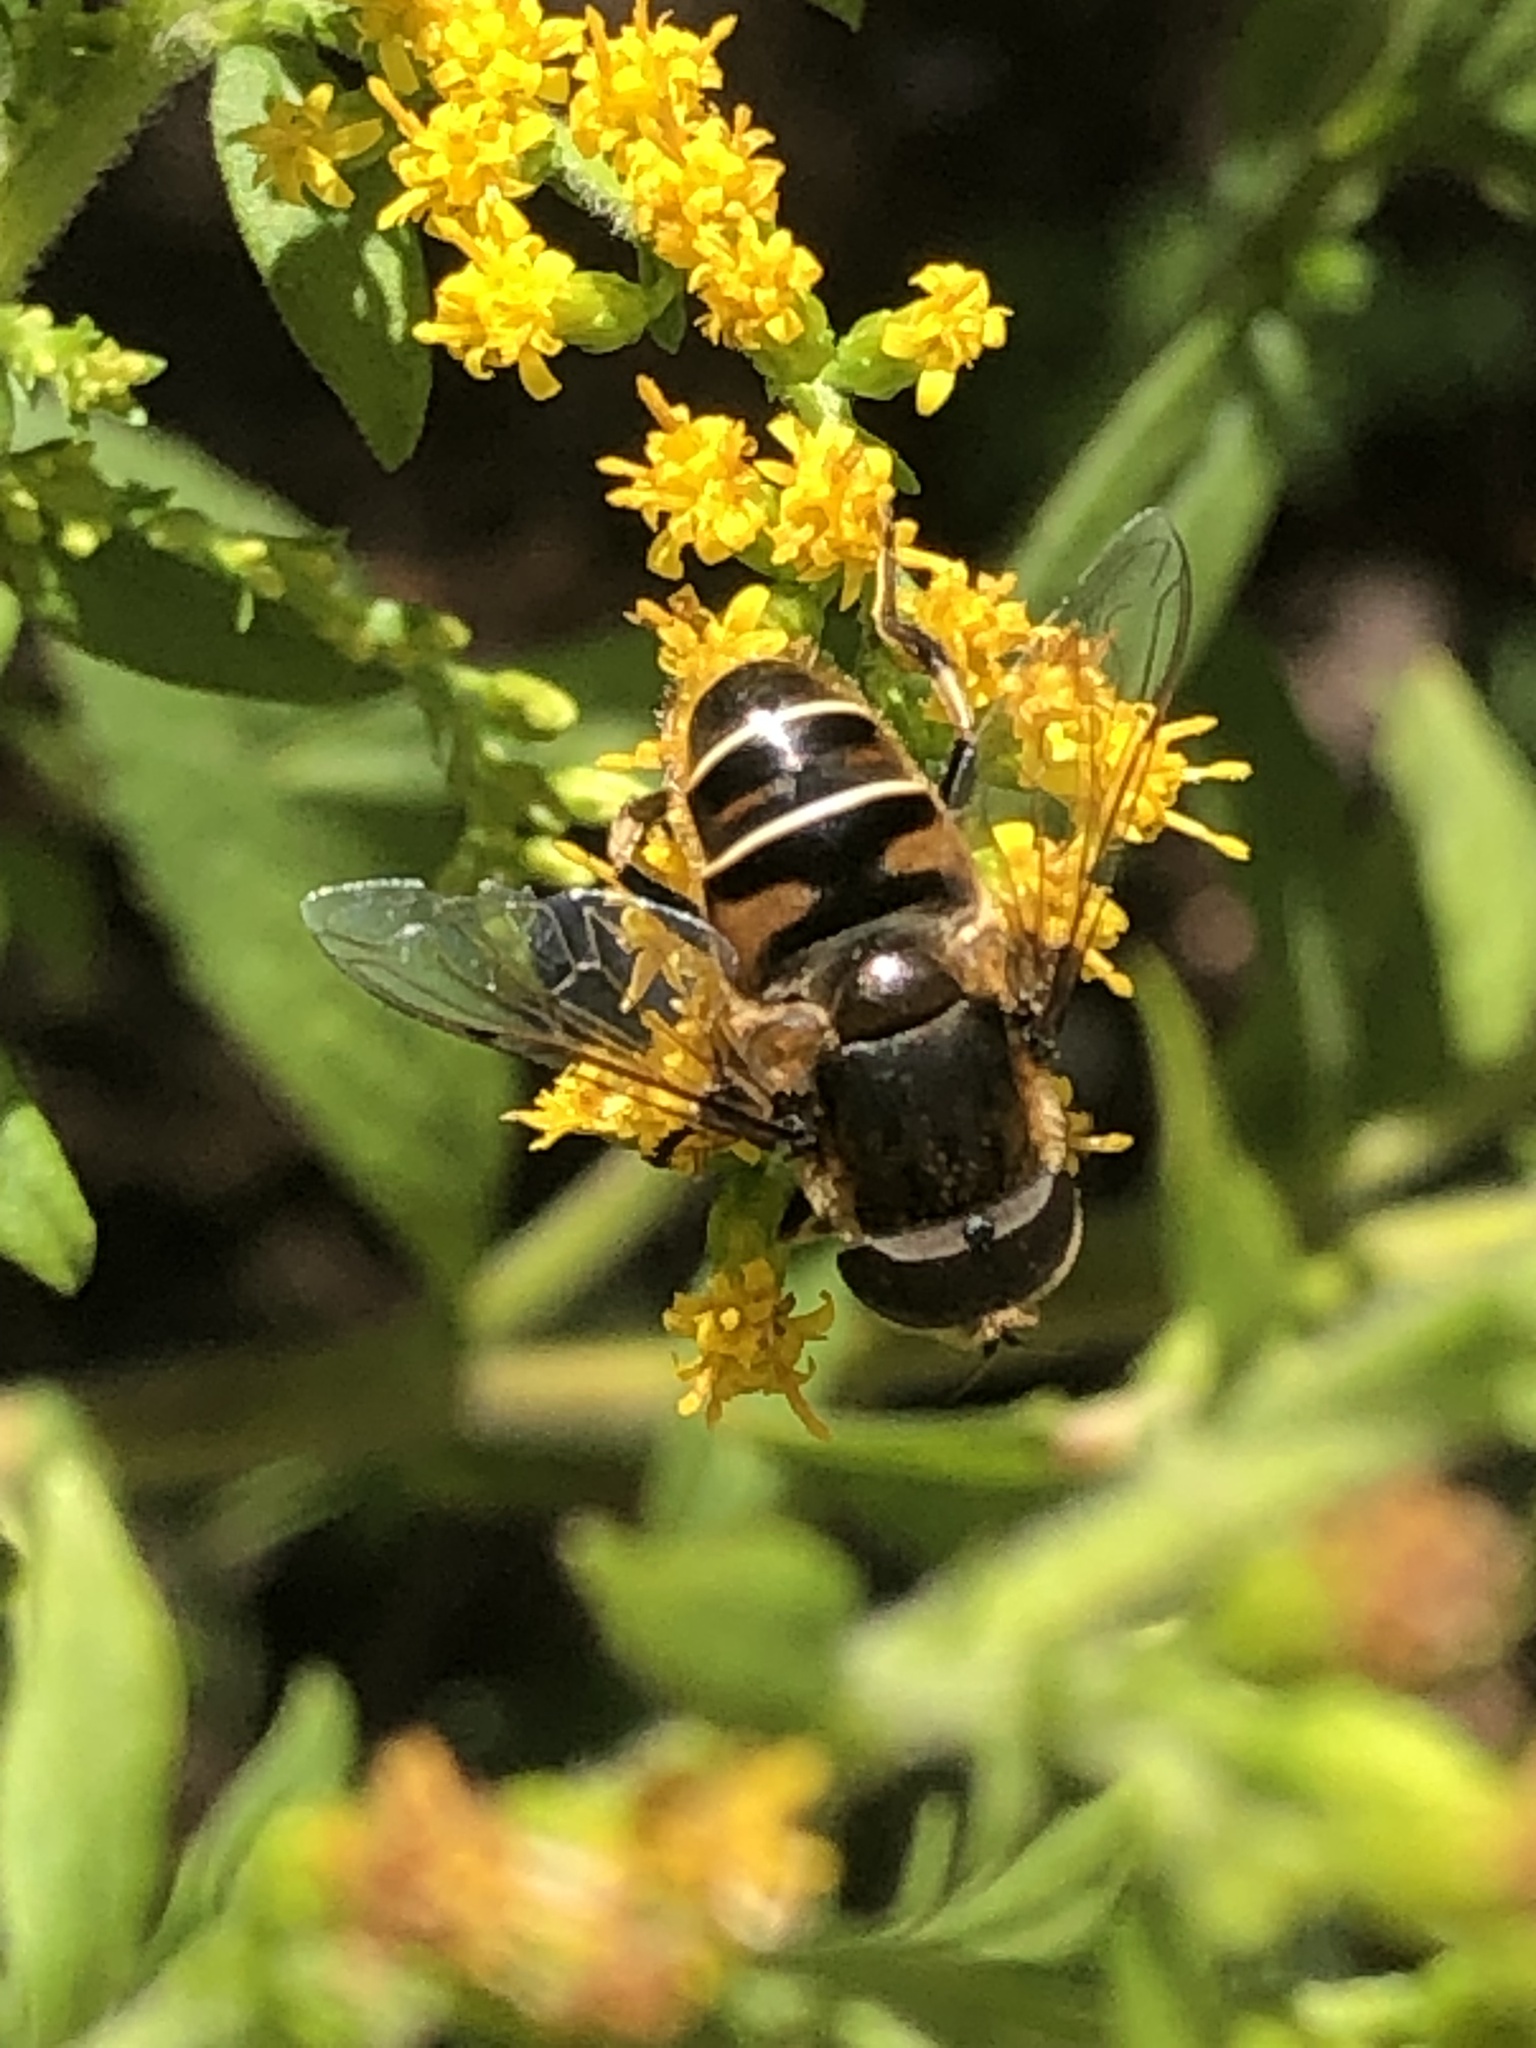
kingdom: Animalia
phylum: Arthropoda
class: Insecta
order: Diptera
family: Syrphidae
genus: Eristalis
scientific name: Eristalis dimidiata
